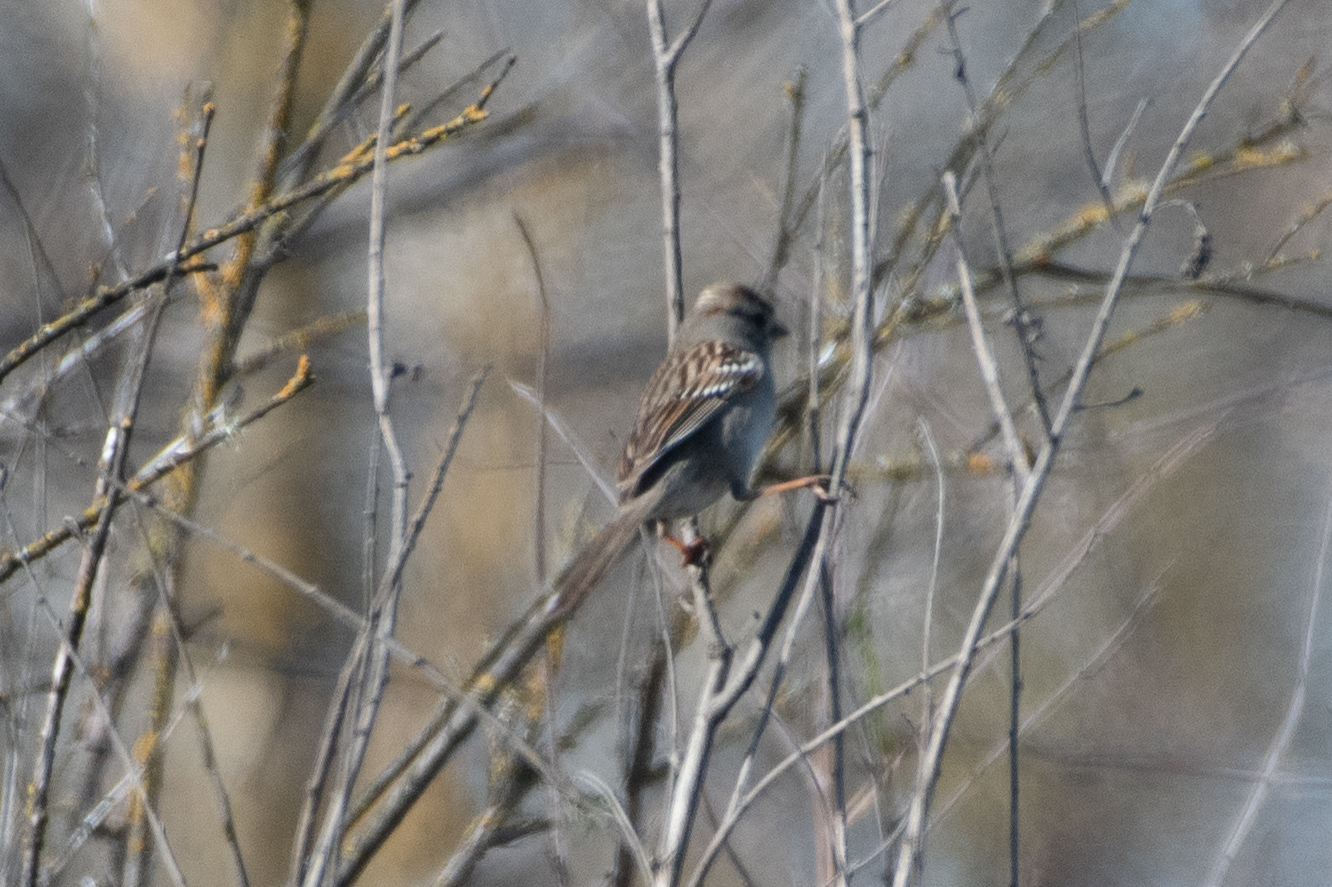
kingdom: Animalia
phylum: Chordata
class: Aves
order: Passeriformes
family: Passerellidae
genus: Zonotrichia
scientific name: Zonotrichia leucophrys
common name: White-crowned sparrow
